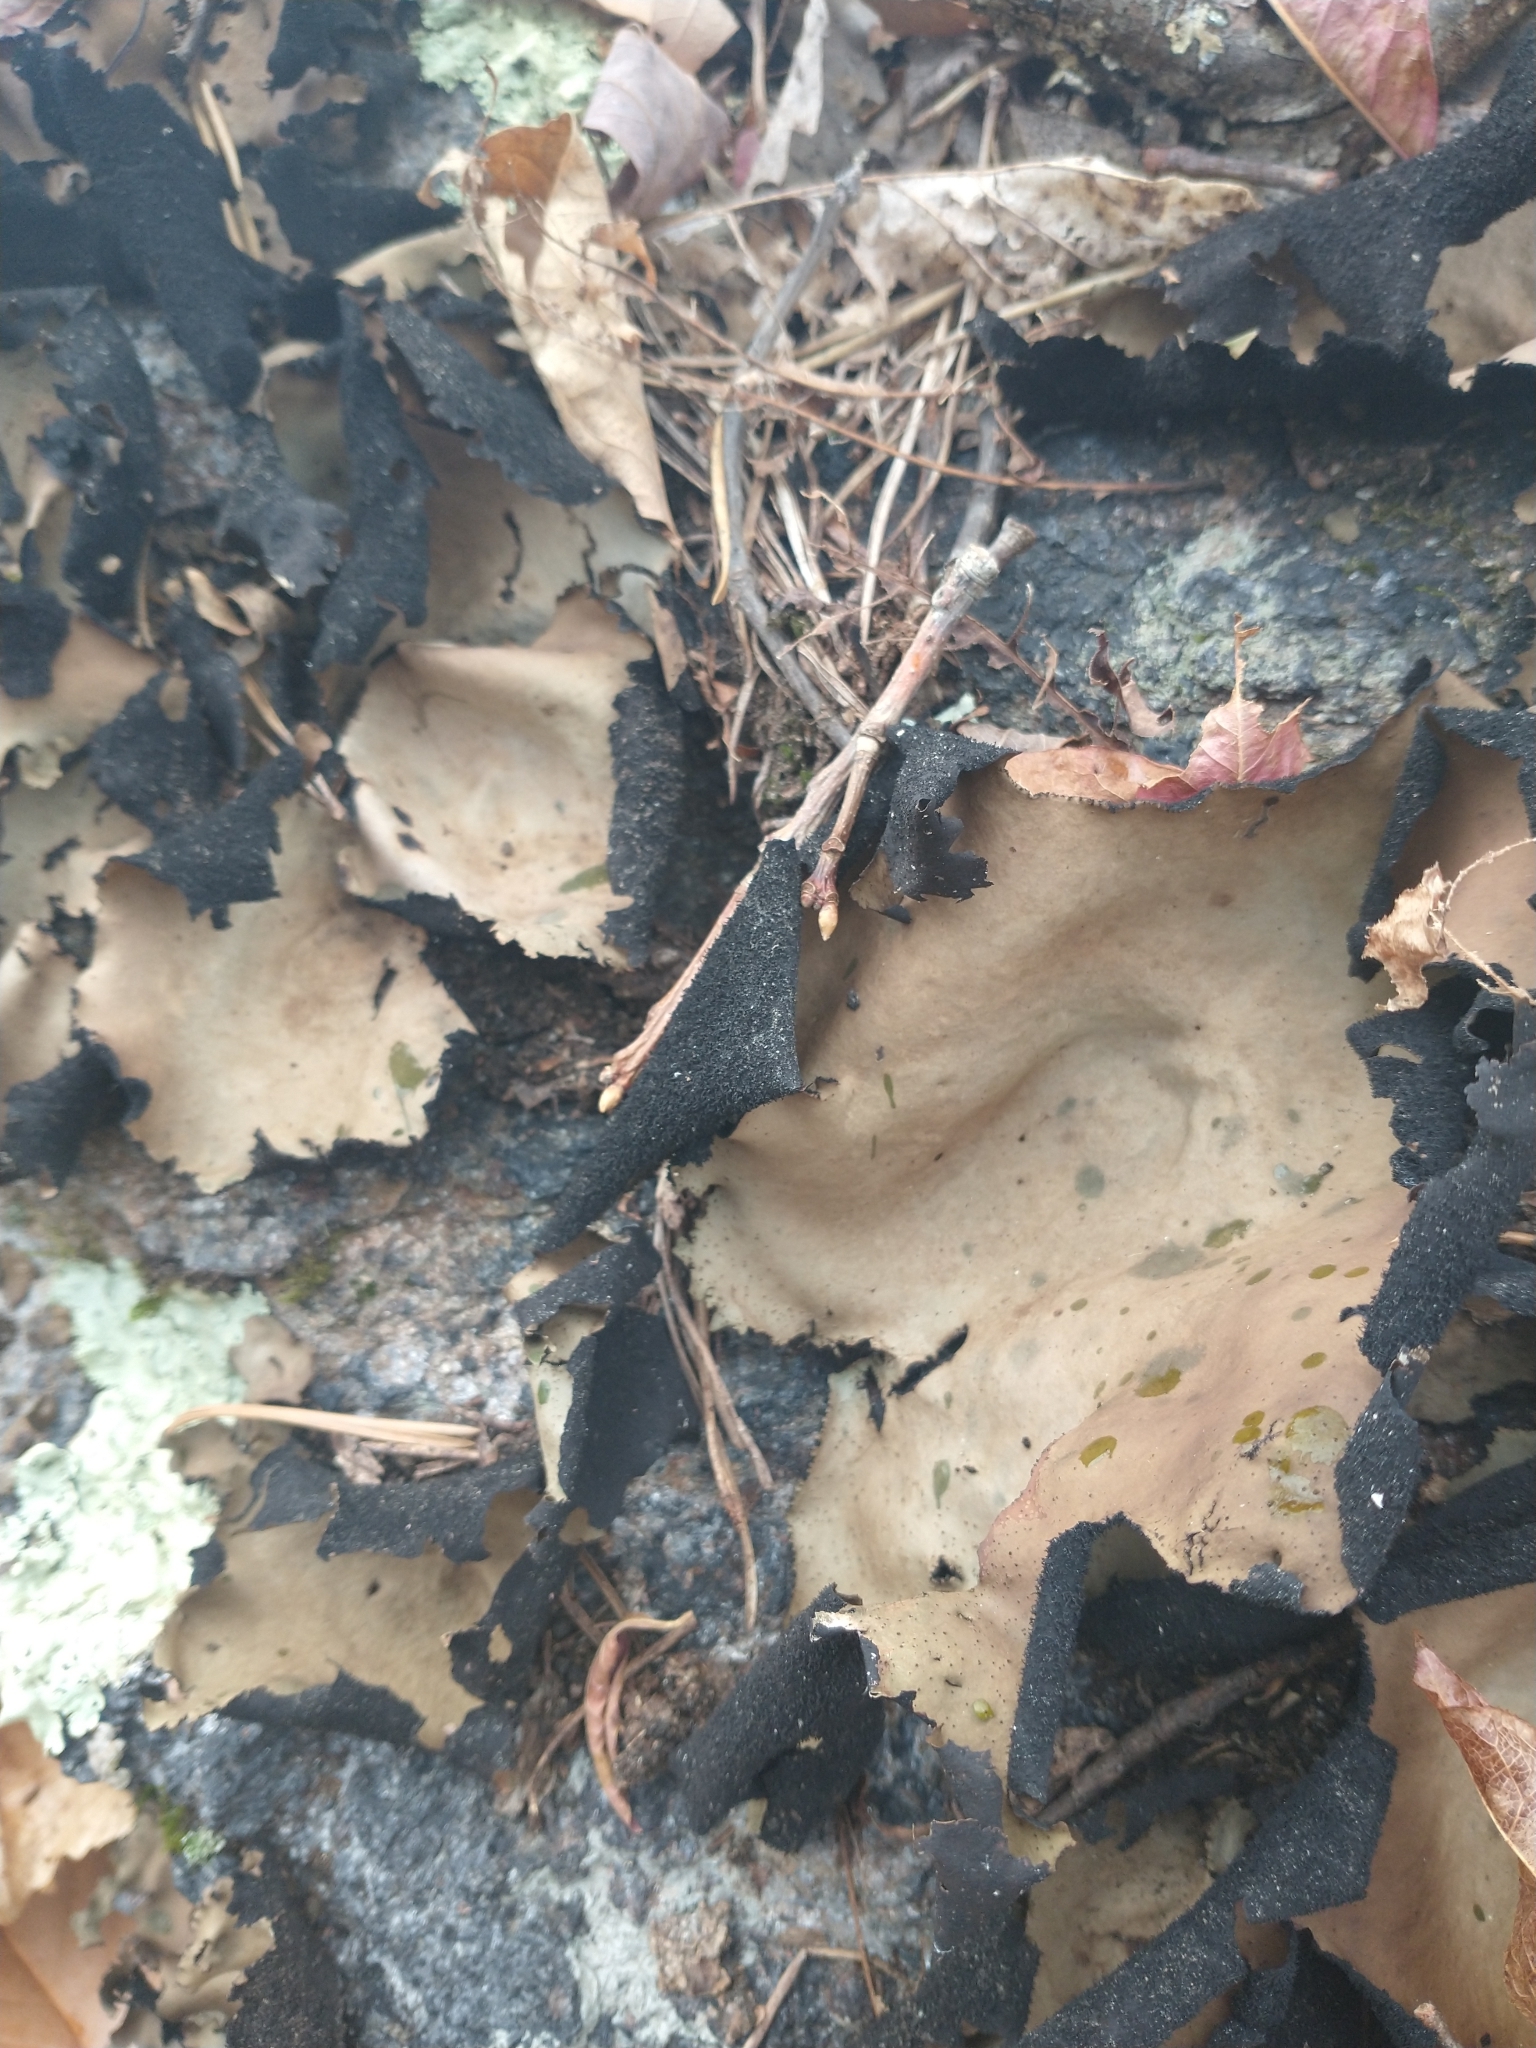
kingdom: Fungi
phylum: Ascomycota
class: Lecanoromycetes
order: Umbilicariales
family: Umbilicariaceae
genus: Umbilicaria
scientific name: Umbilicaria mammulata
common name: Smooth rock tripe
